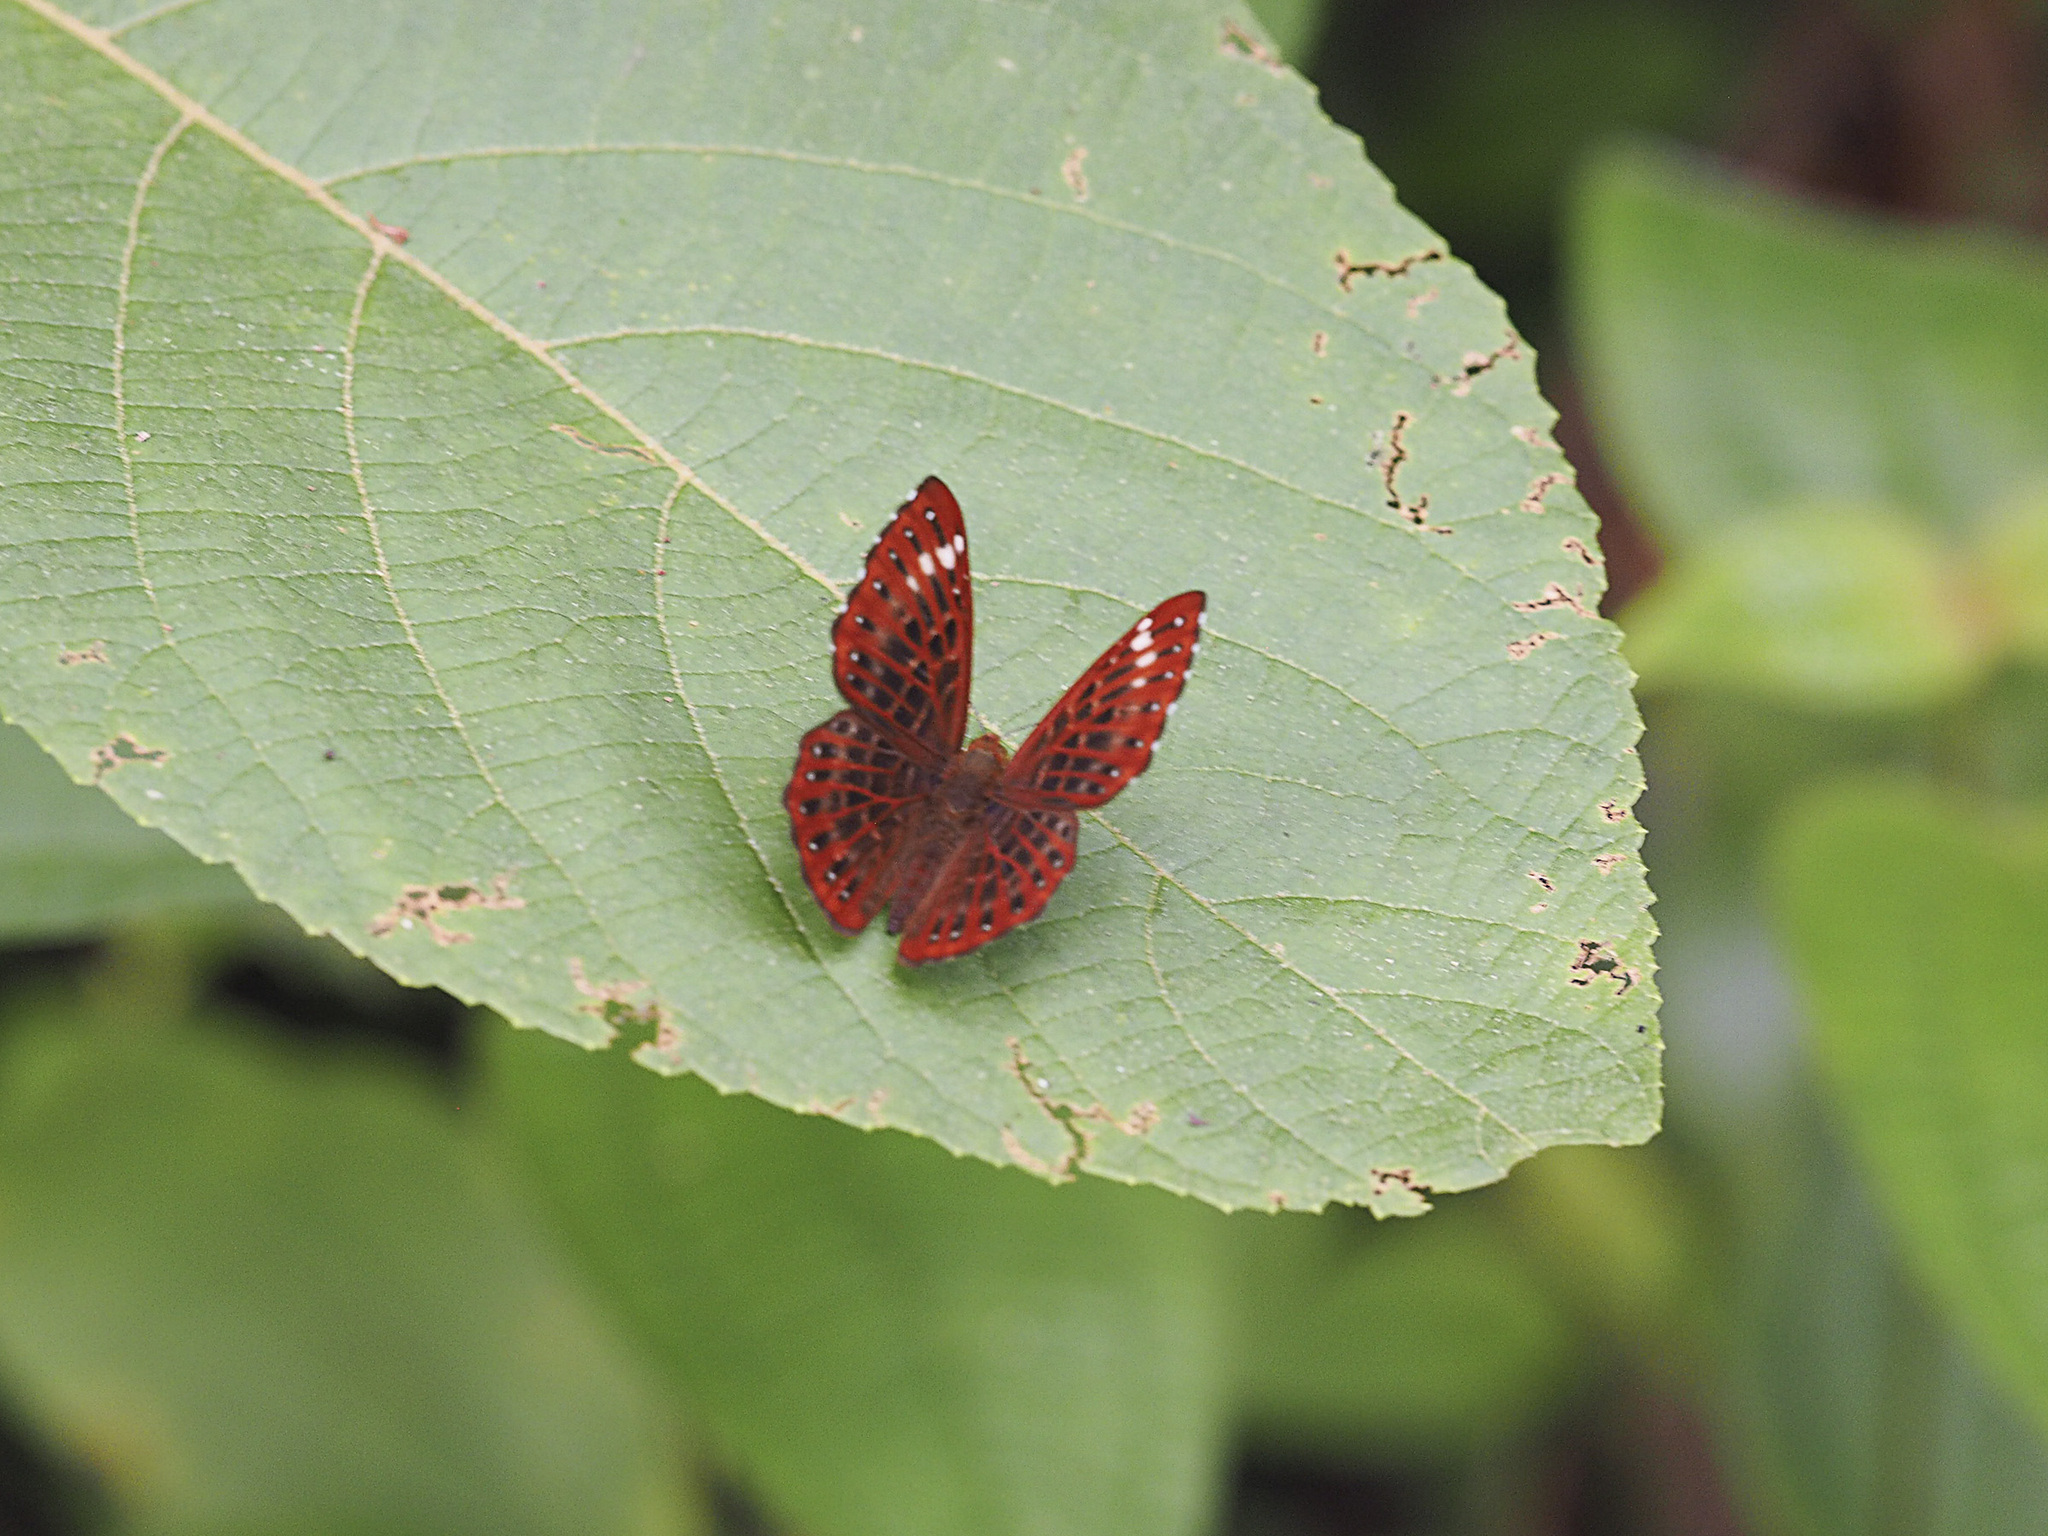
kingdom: Animalia
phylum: Arthropoda
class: Insecta
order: Lepidoptera
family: Riodinidae
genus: Zemeros
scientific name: Zemeros flegyas
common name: Punchinello
